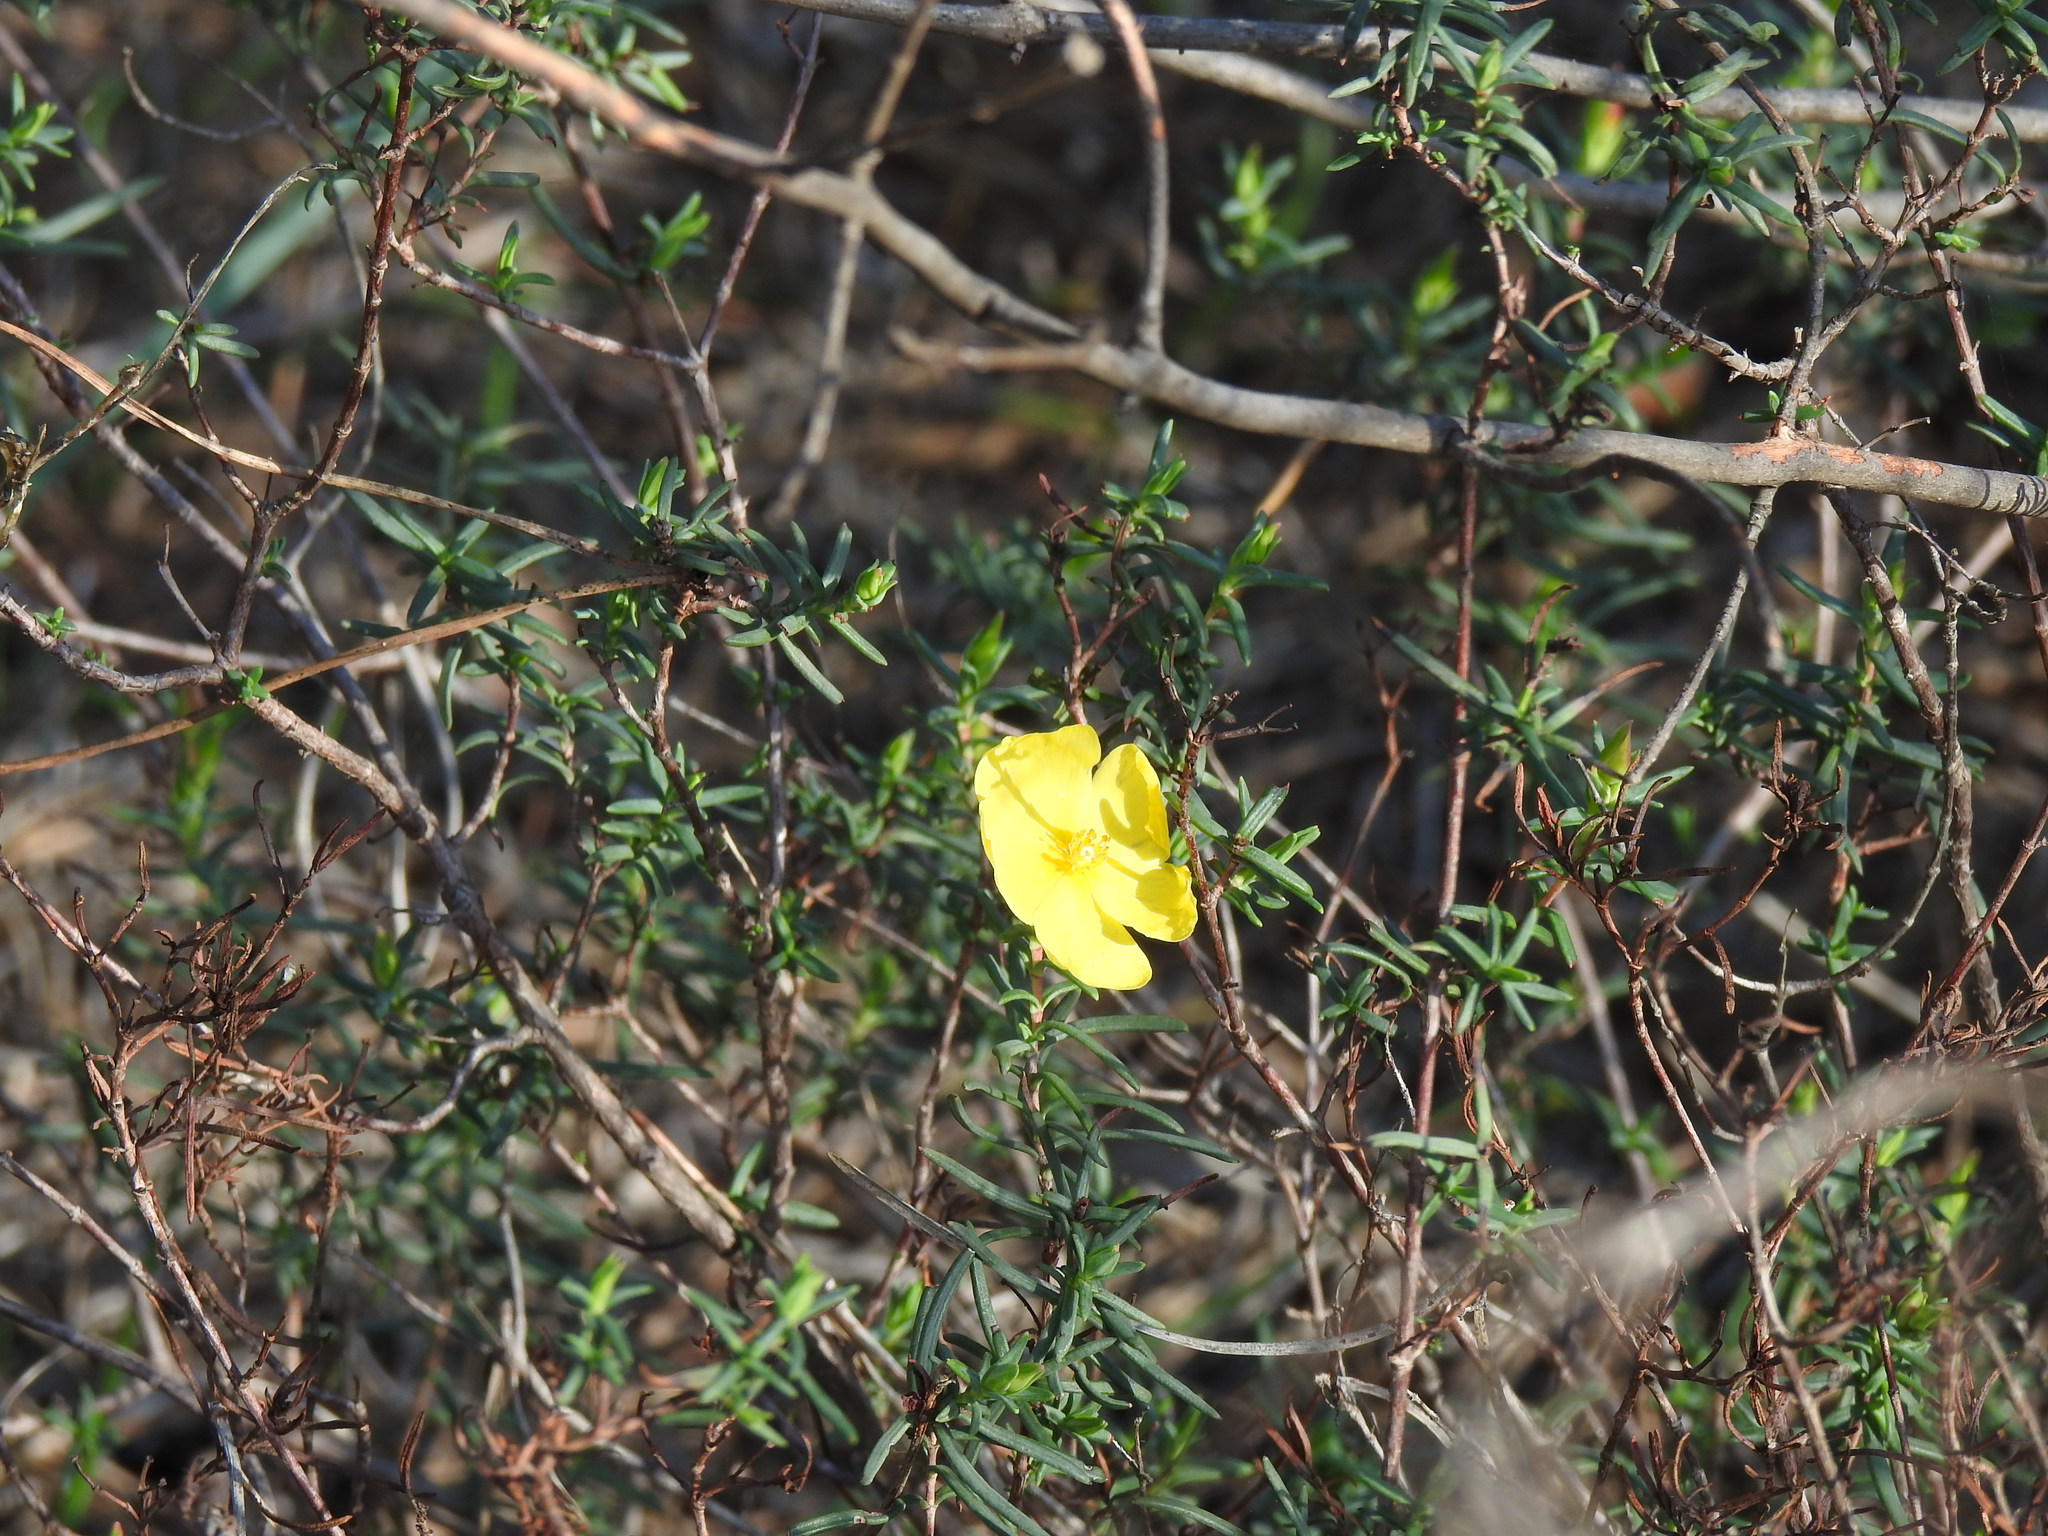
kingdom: Plantae
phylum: Tracheophyta
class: Magnoliopsida
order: Malvales
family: Cistaceae
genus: Halimium
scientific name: Halimium calycinum
